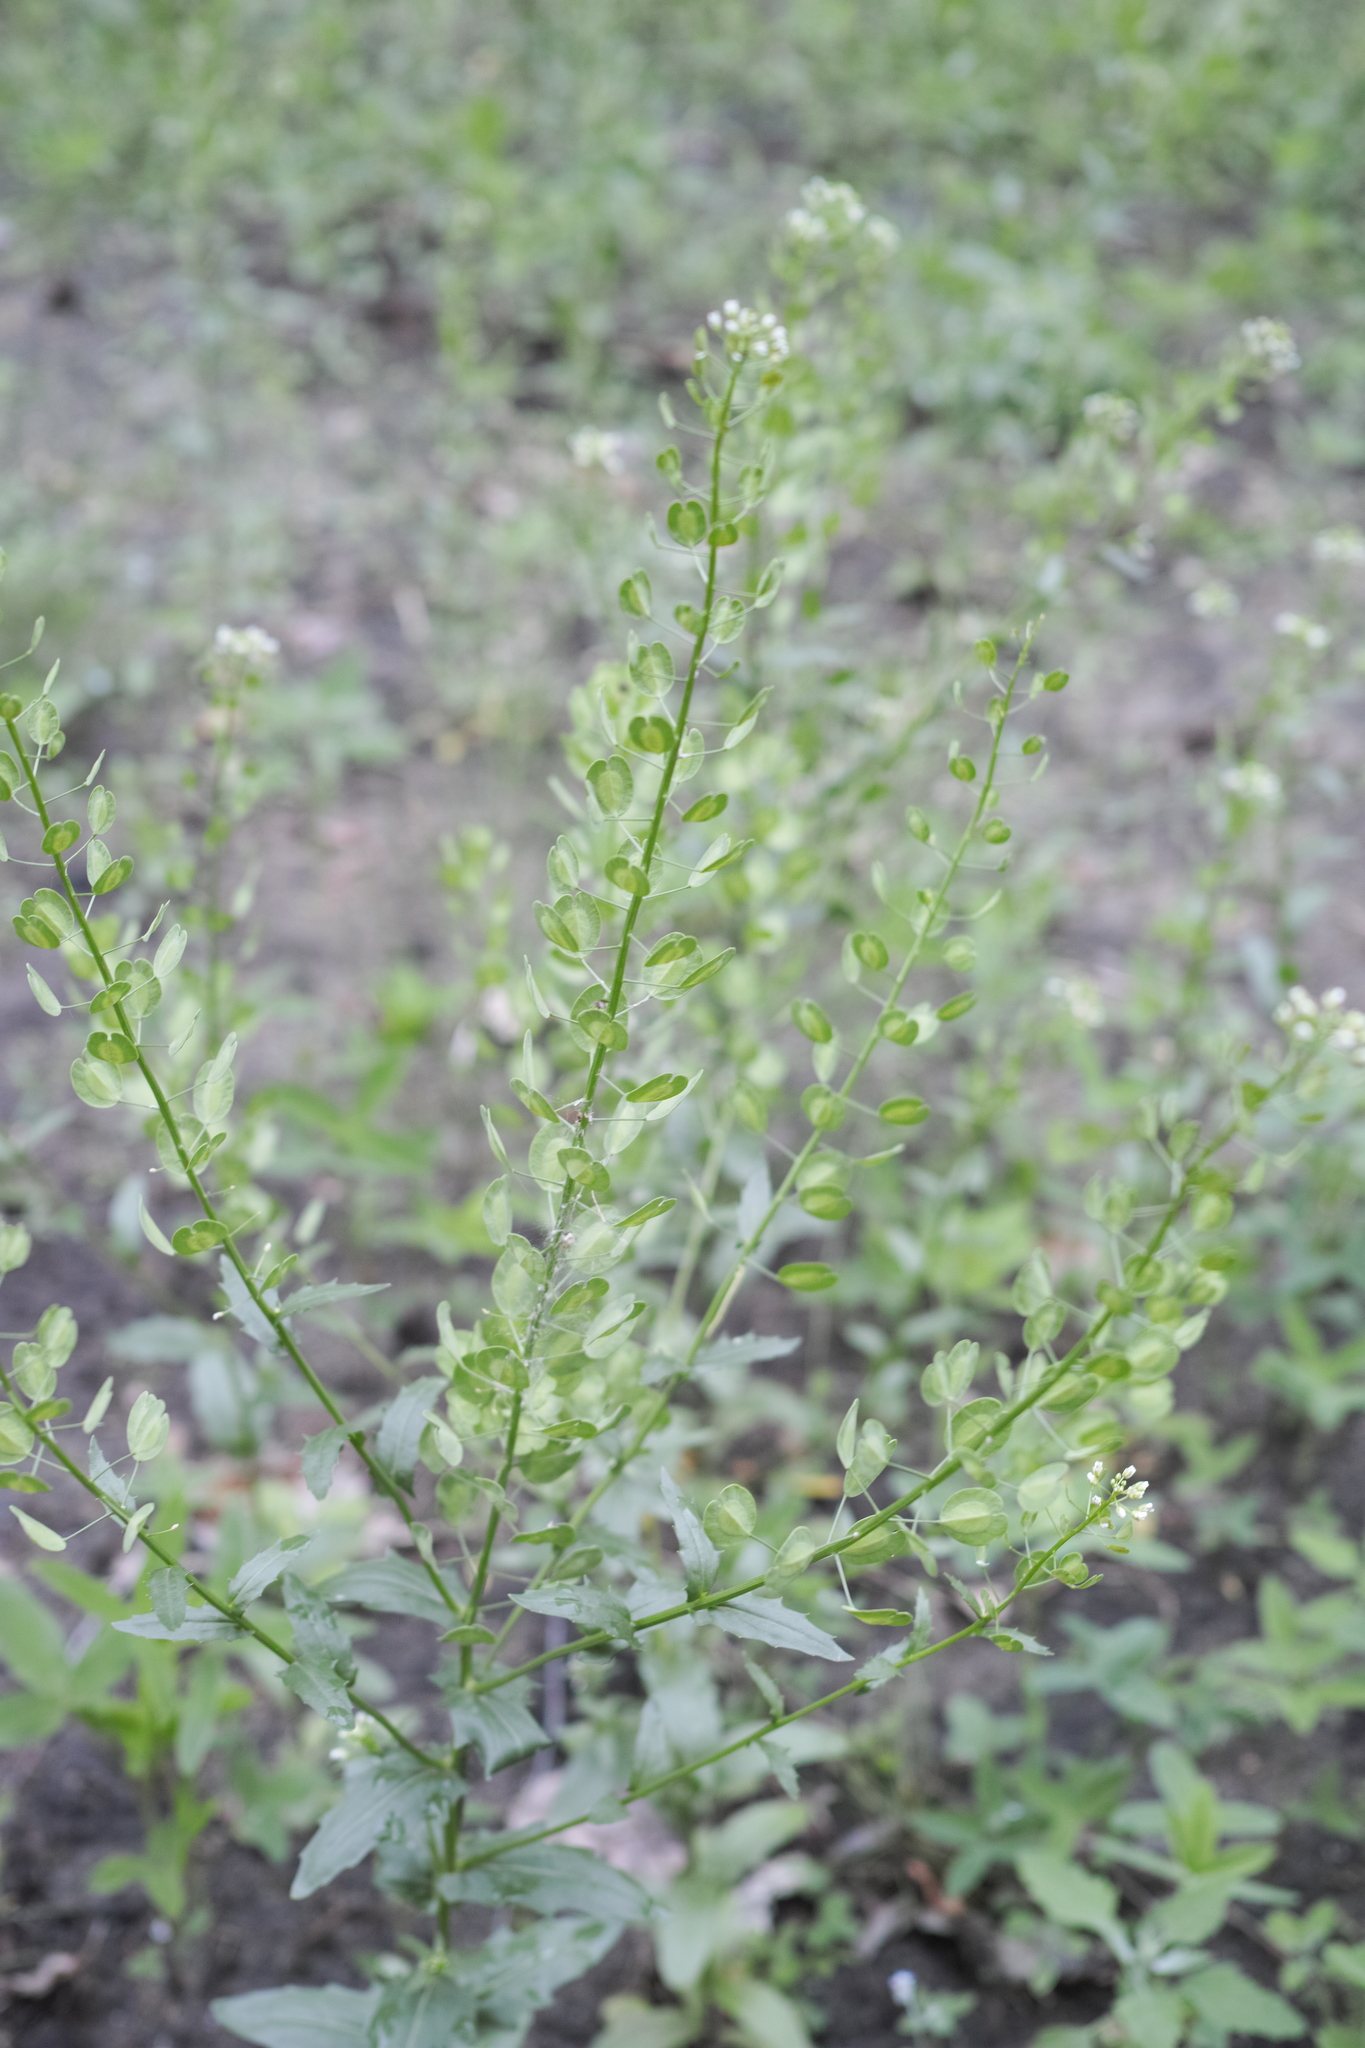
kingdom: Plantae
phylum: Tracheophyta
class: Magnoliopsida
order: Brassicales
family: Brassicaceae
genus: Thlaspi
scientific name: Thlaspi arvense
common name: Field pennycress
